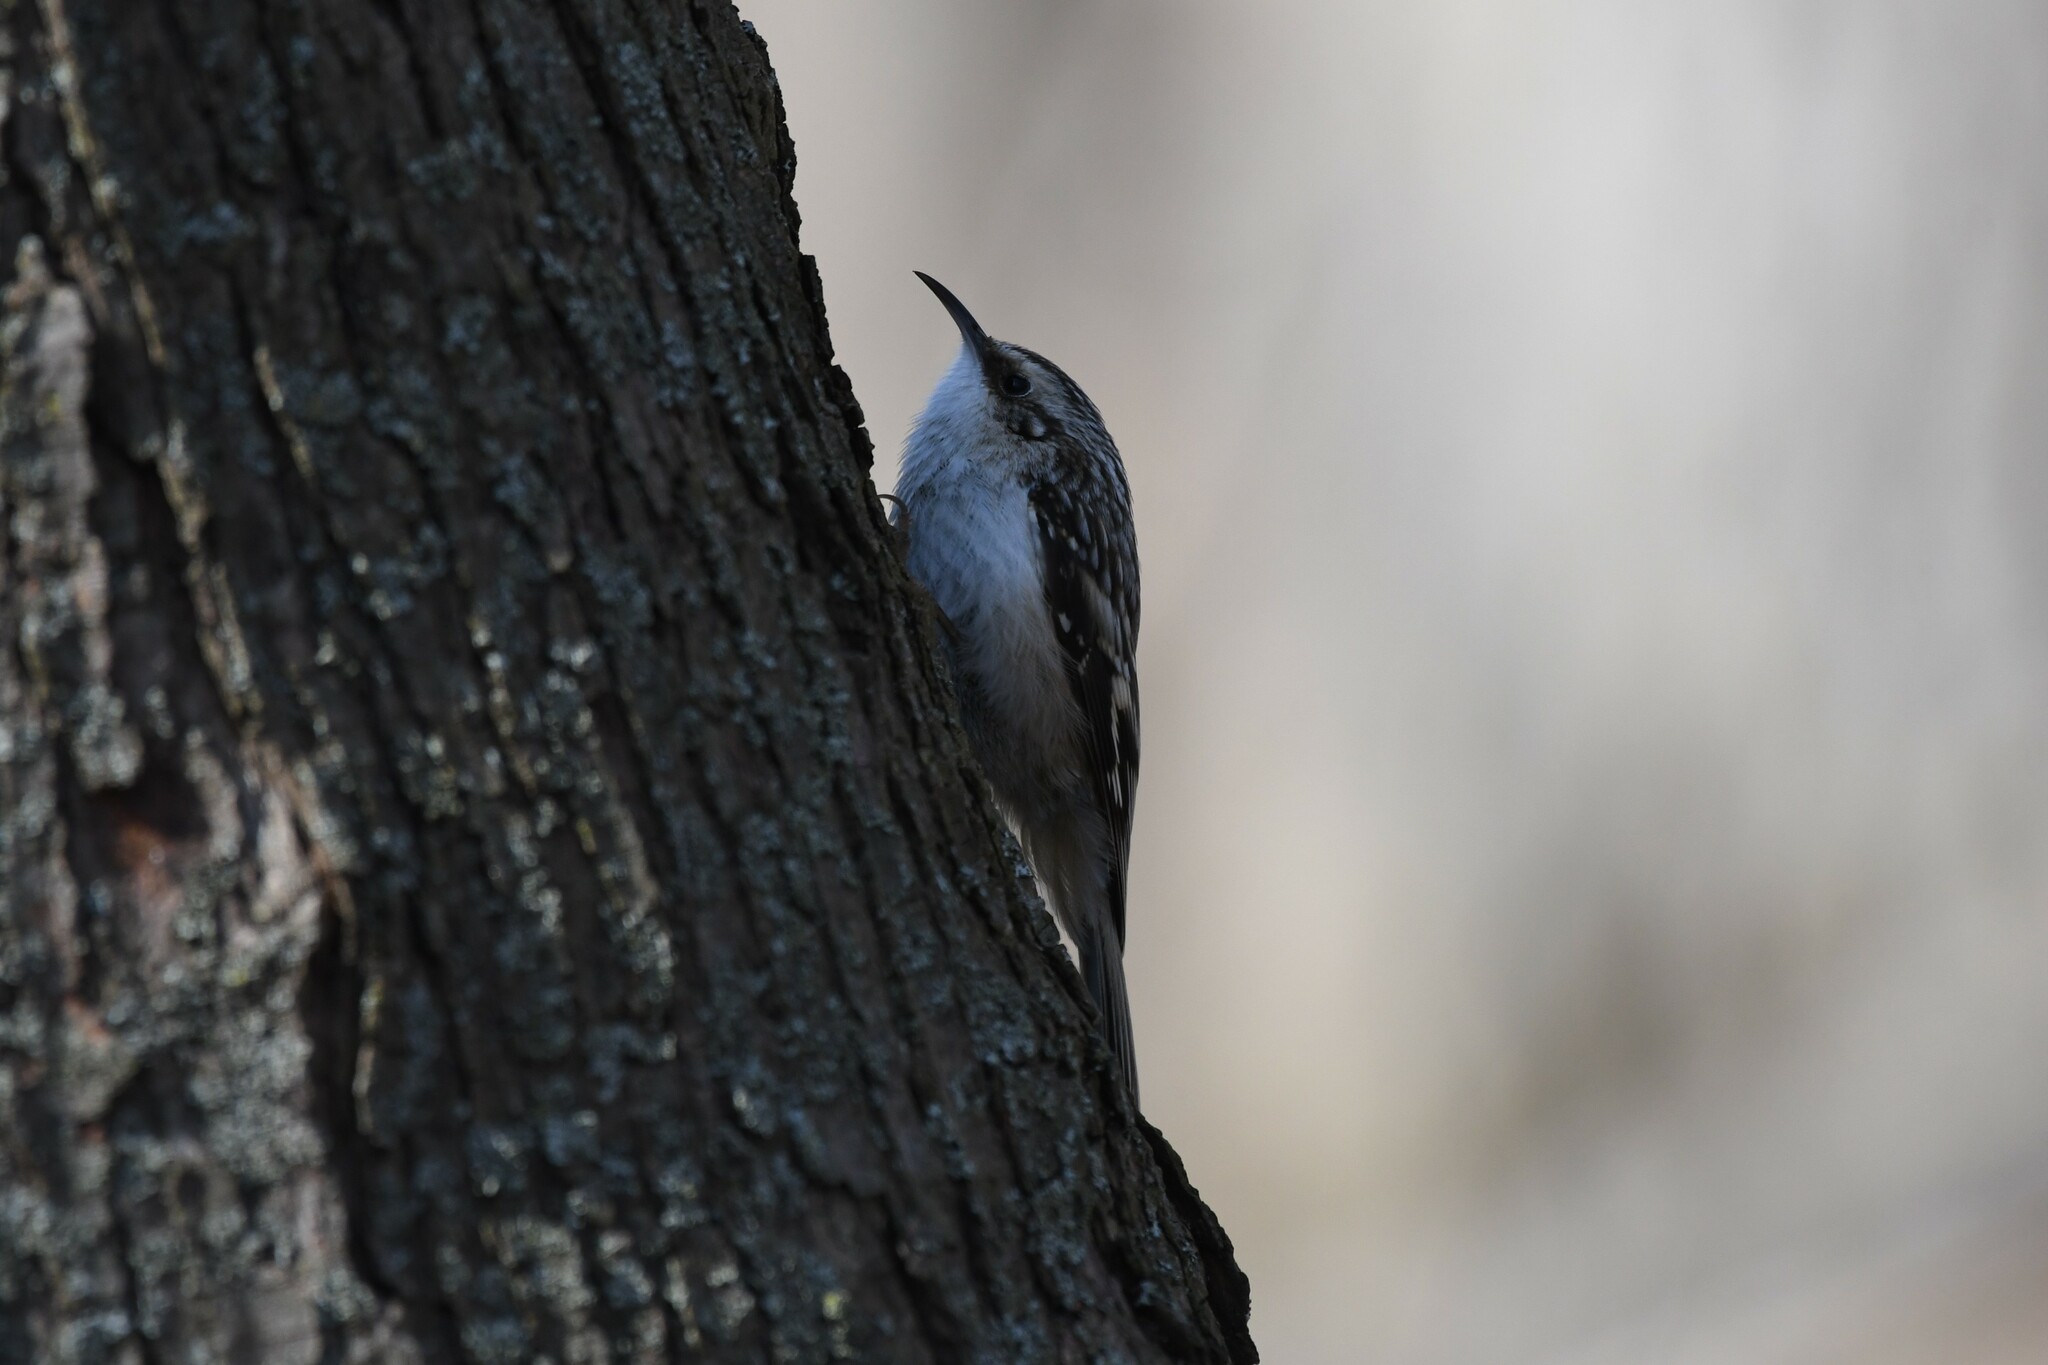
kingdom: Animalia
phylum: Chordata
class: Aves
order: Passeriformes
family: Certhiidae
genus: Certhia
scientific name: Certhia americana
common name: Brown creeper
